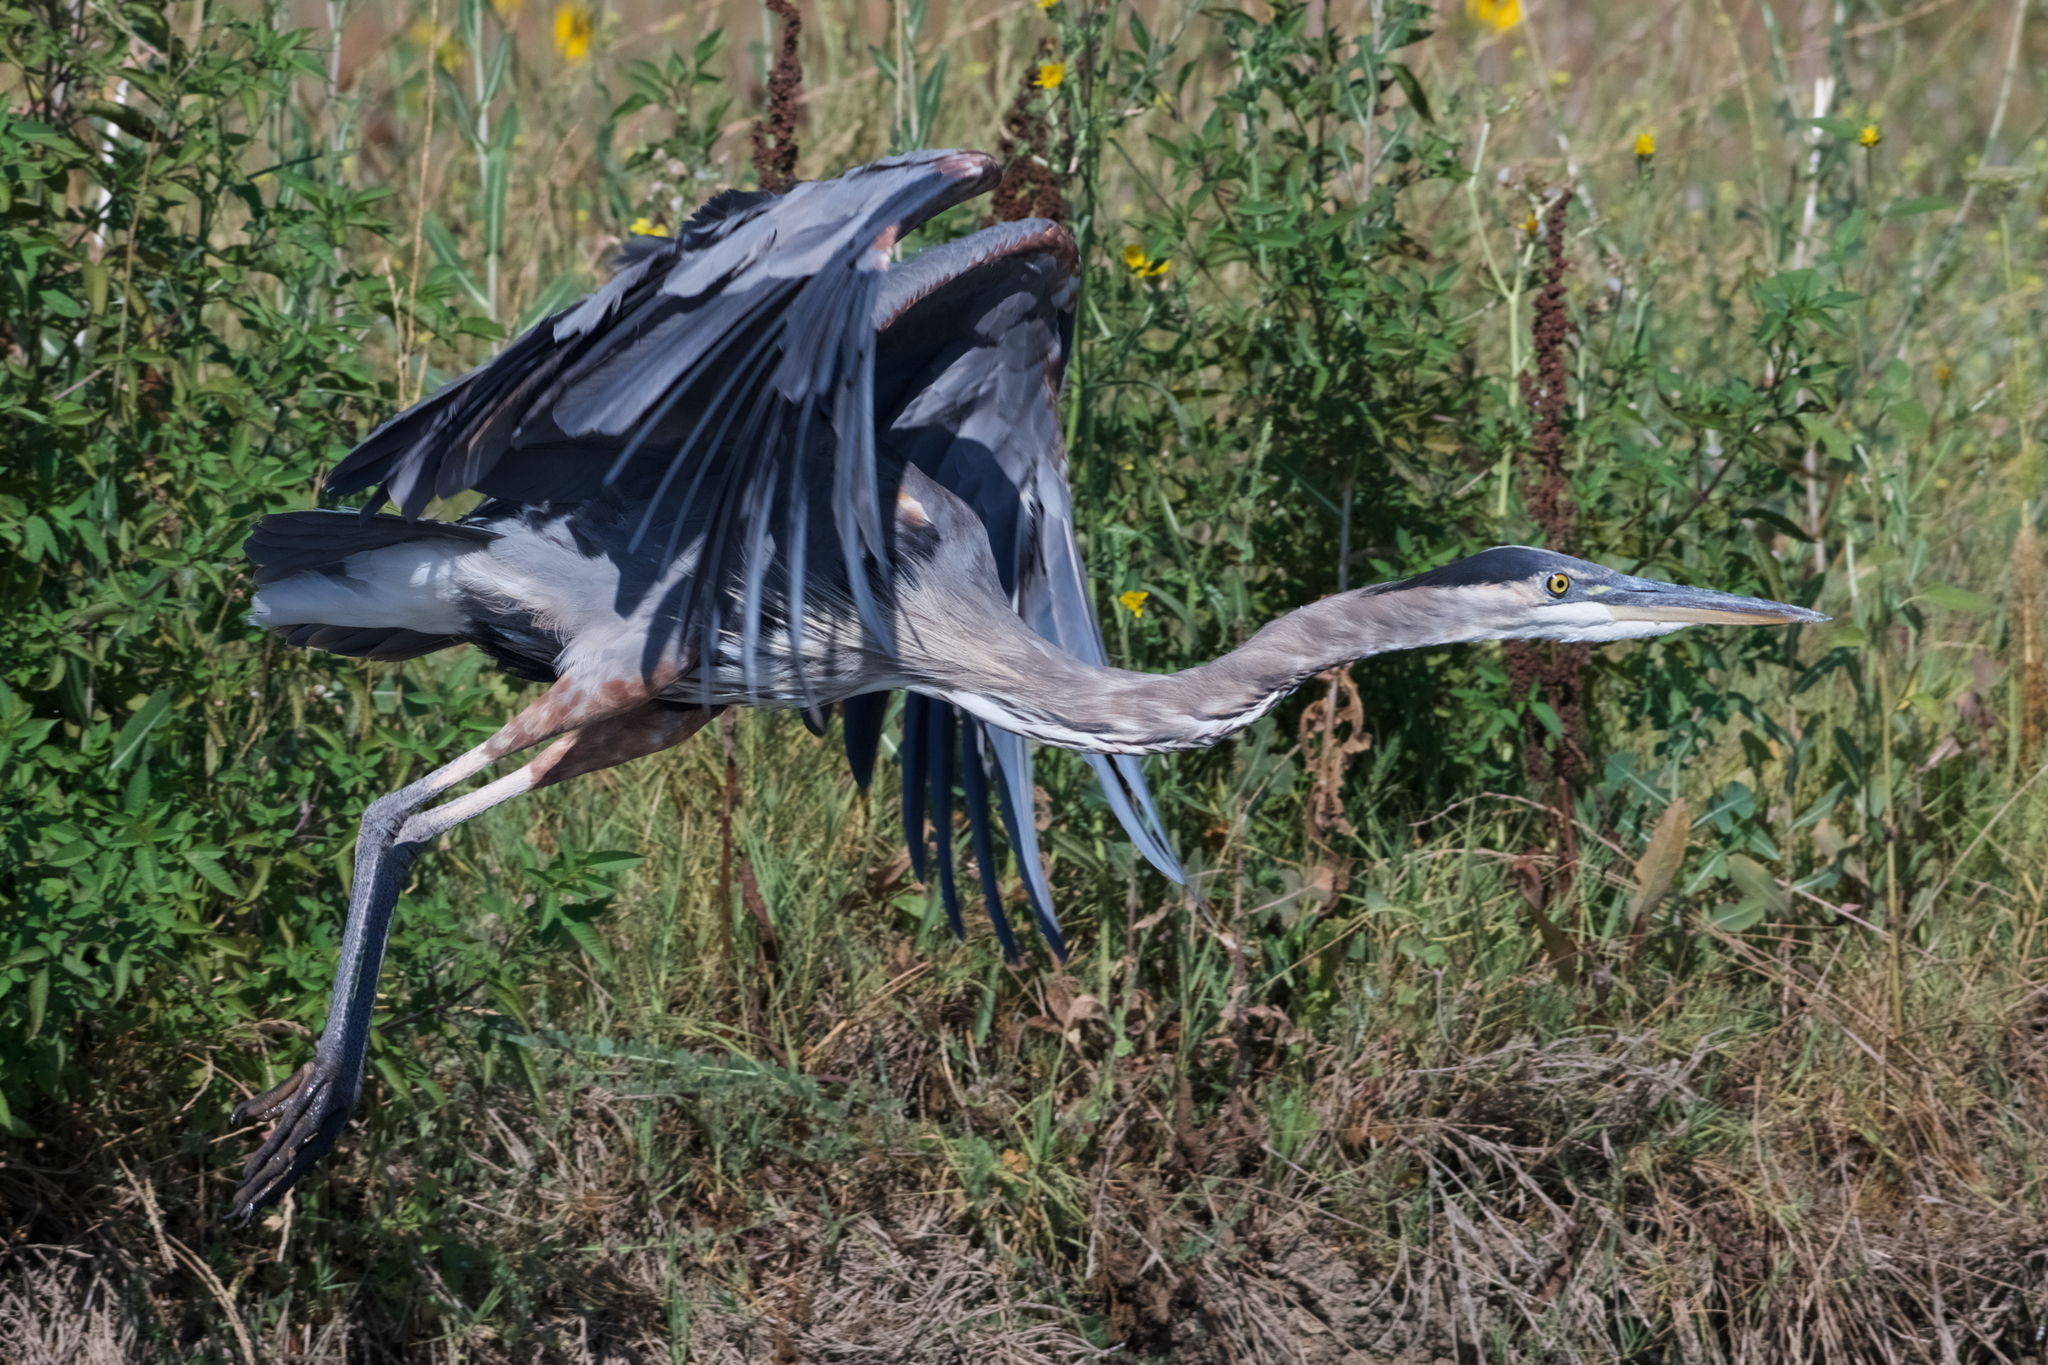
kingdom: Animalia
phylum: Chordata
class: Aves
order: Pelecaniformes
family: Ardeidae
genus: Ardea
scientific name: Ardea herodias
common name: Great blue heron
